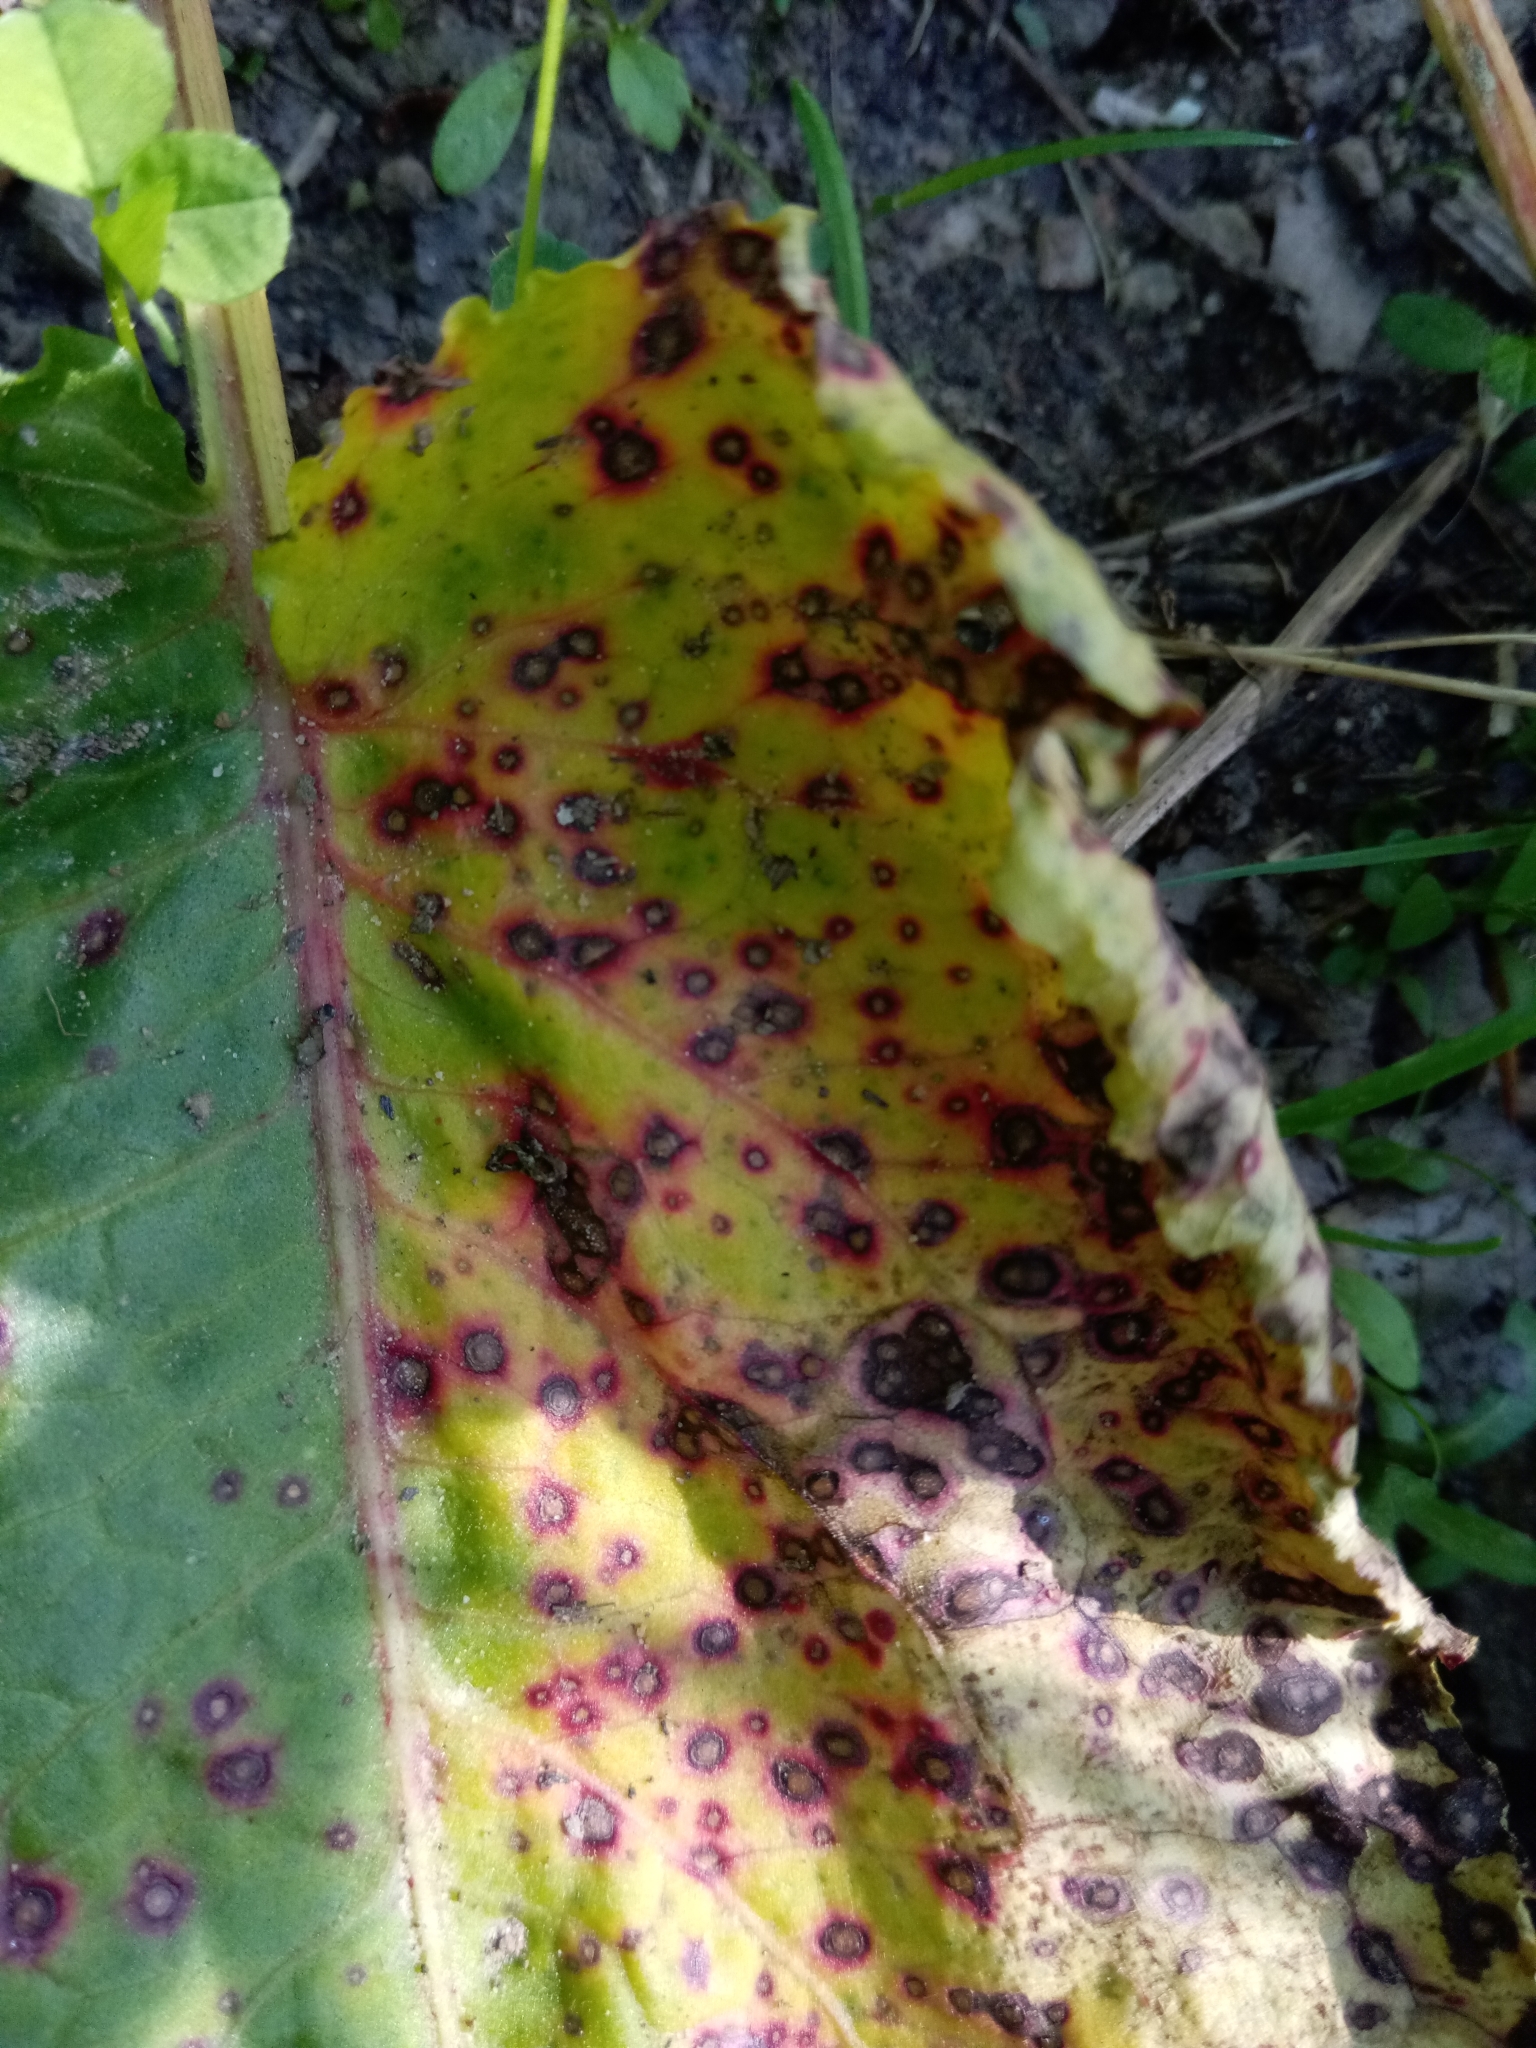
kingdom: Fungi
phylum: Ascomycota
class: Dothideomycetes
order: Mycosphaerellales
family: Mycosphaerellaceae
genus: Ramularia
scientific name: Ramularia rubella
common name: Red dock spot
